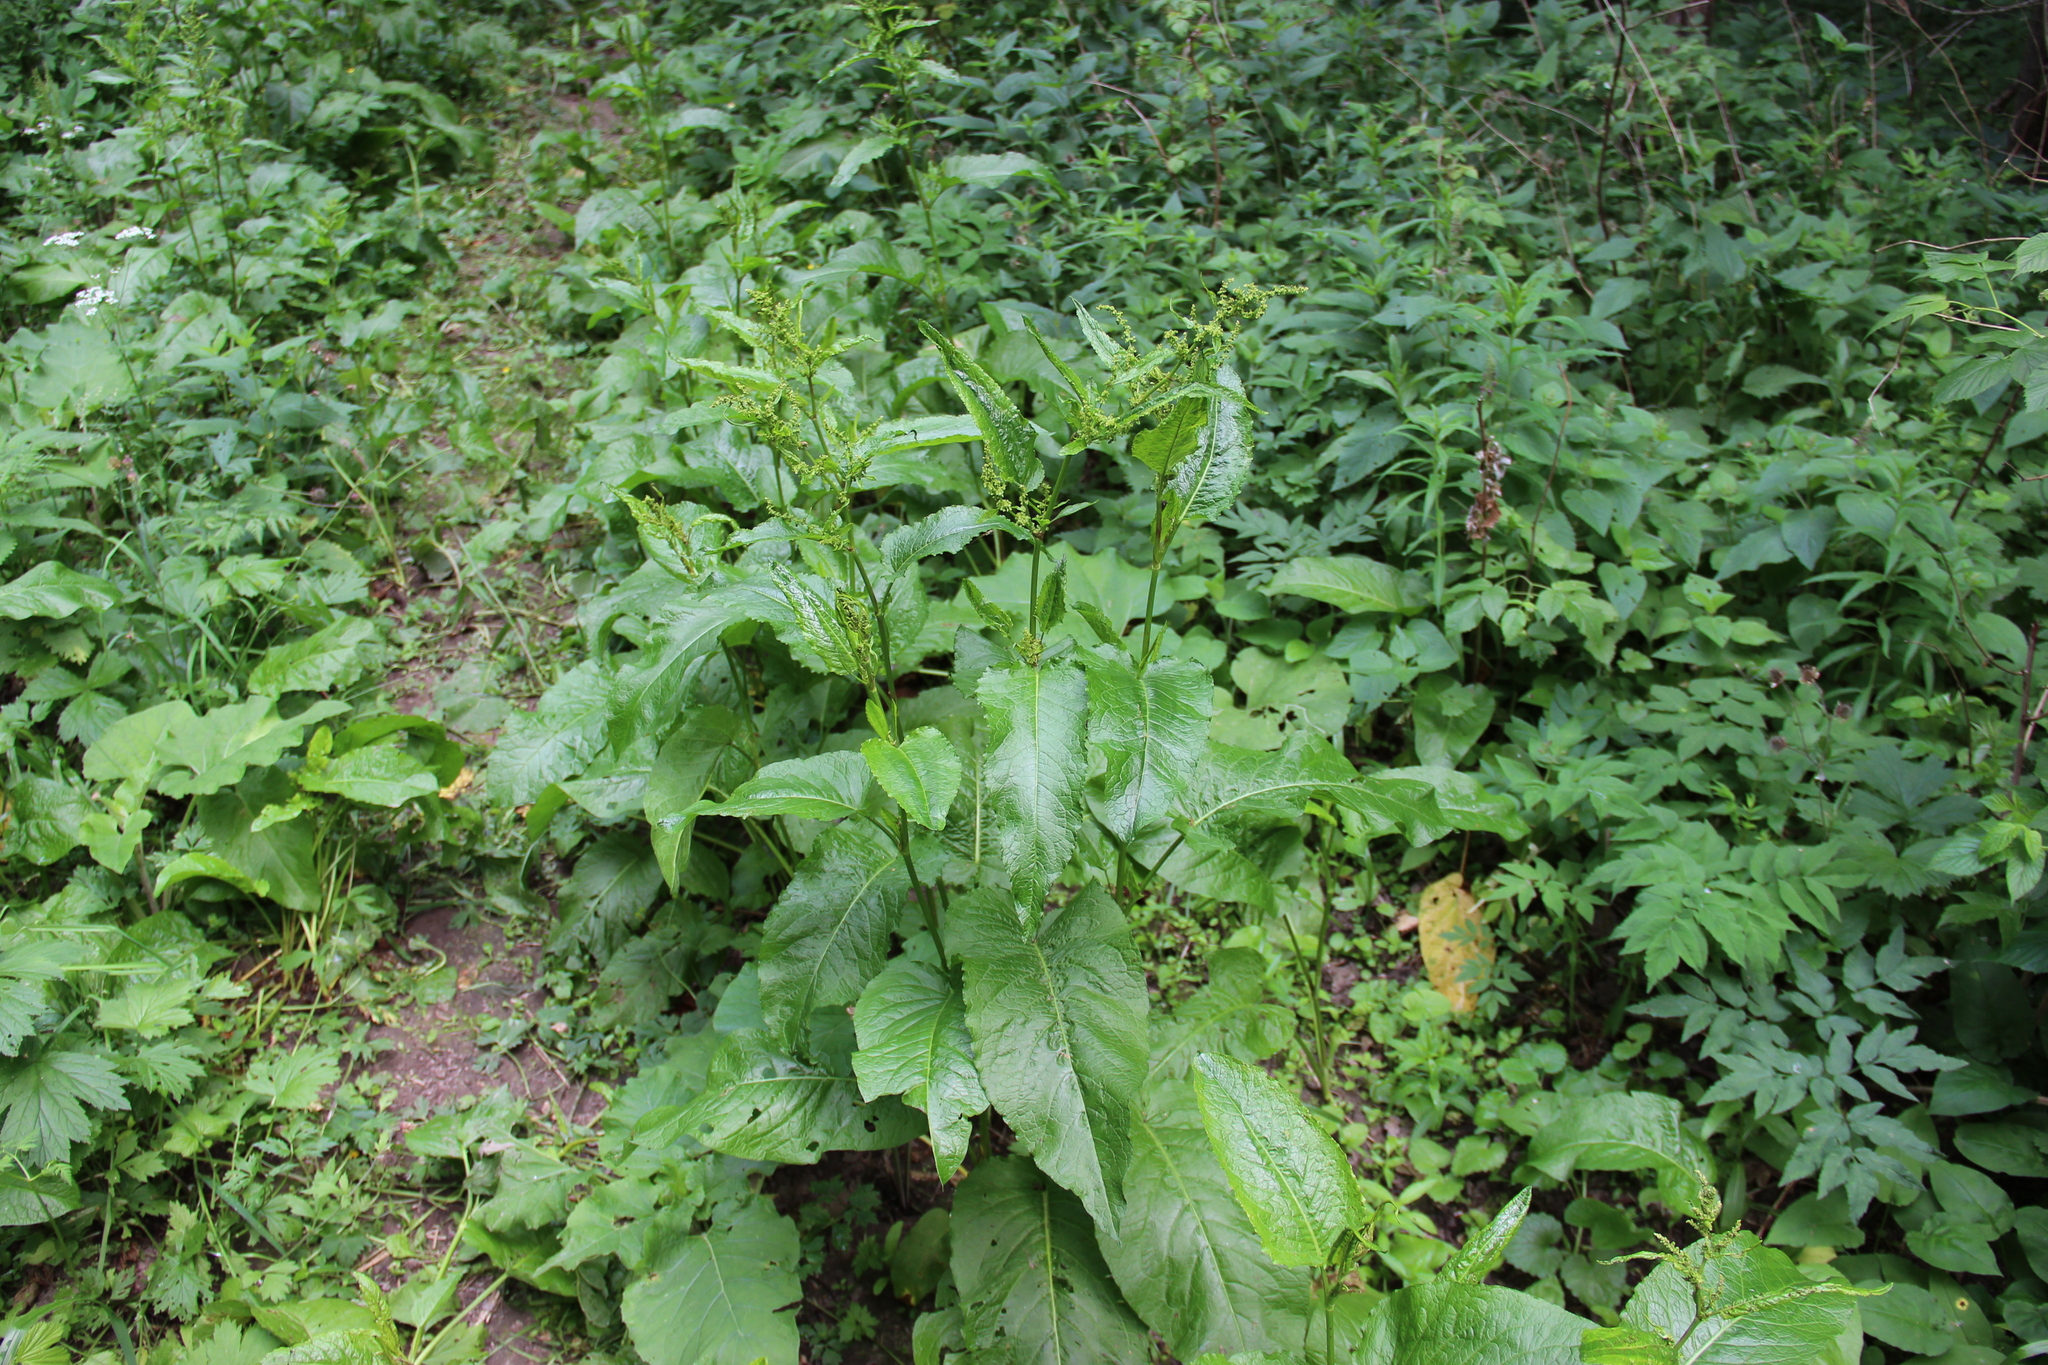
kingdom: Plantae
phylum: Tracheophyta
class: Magnoliopsida
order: Caryophyllales
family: Polygonaceae
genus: Rumex
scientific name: Rumex obtusifolius
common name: Bitter dock
